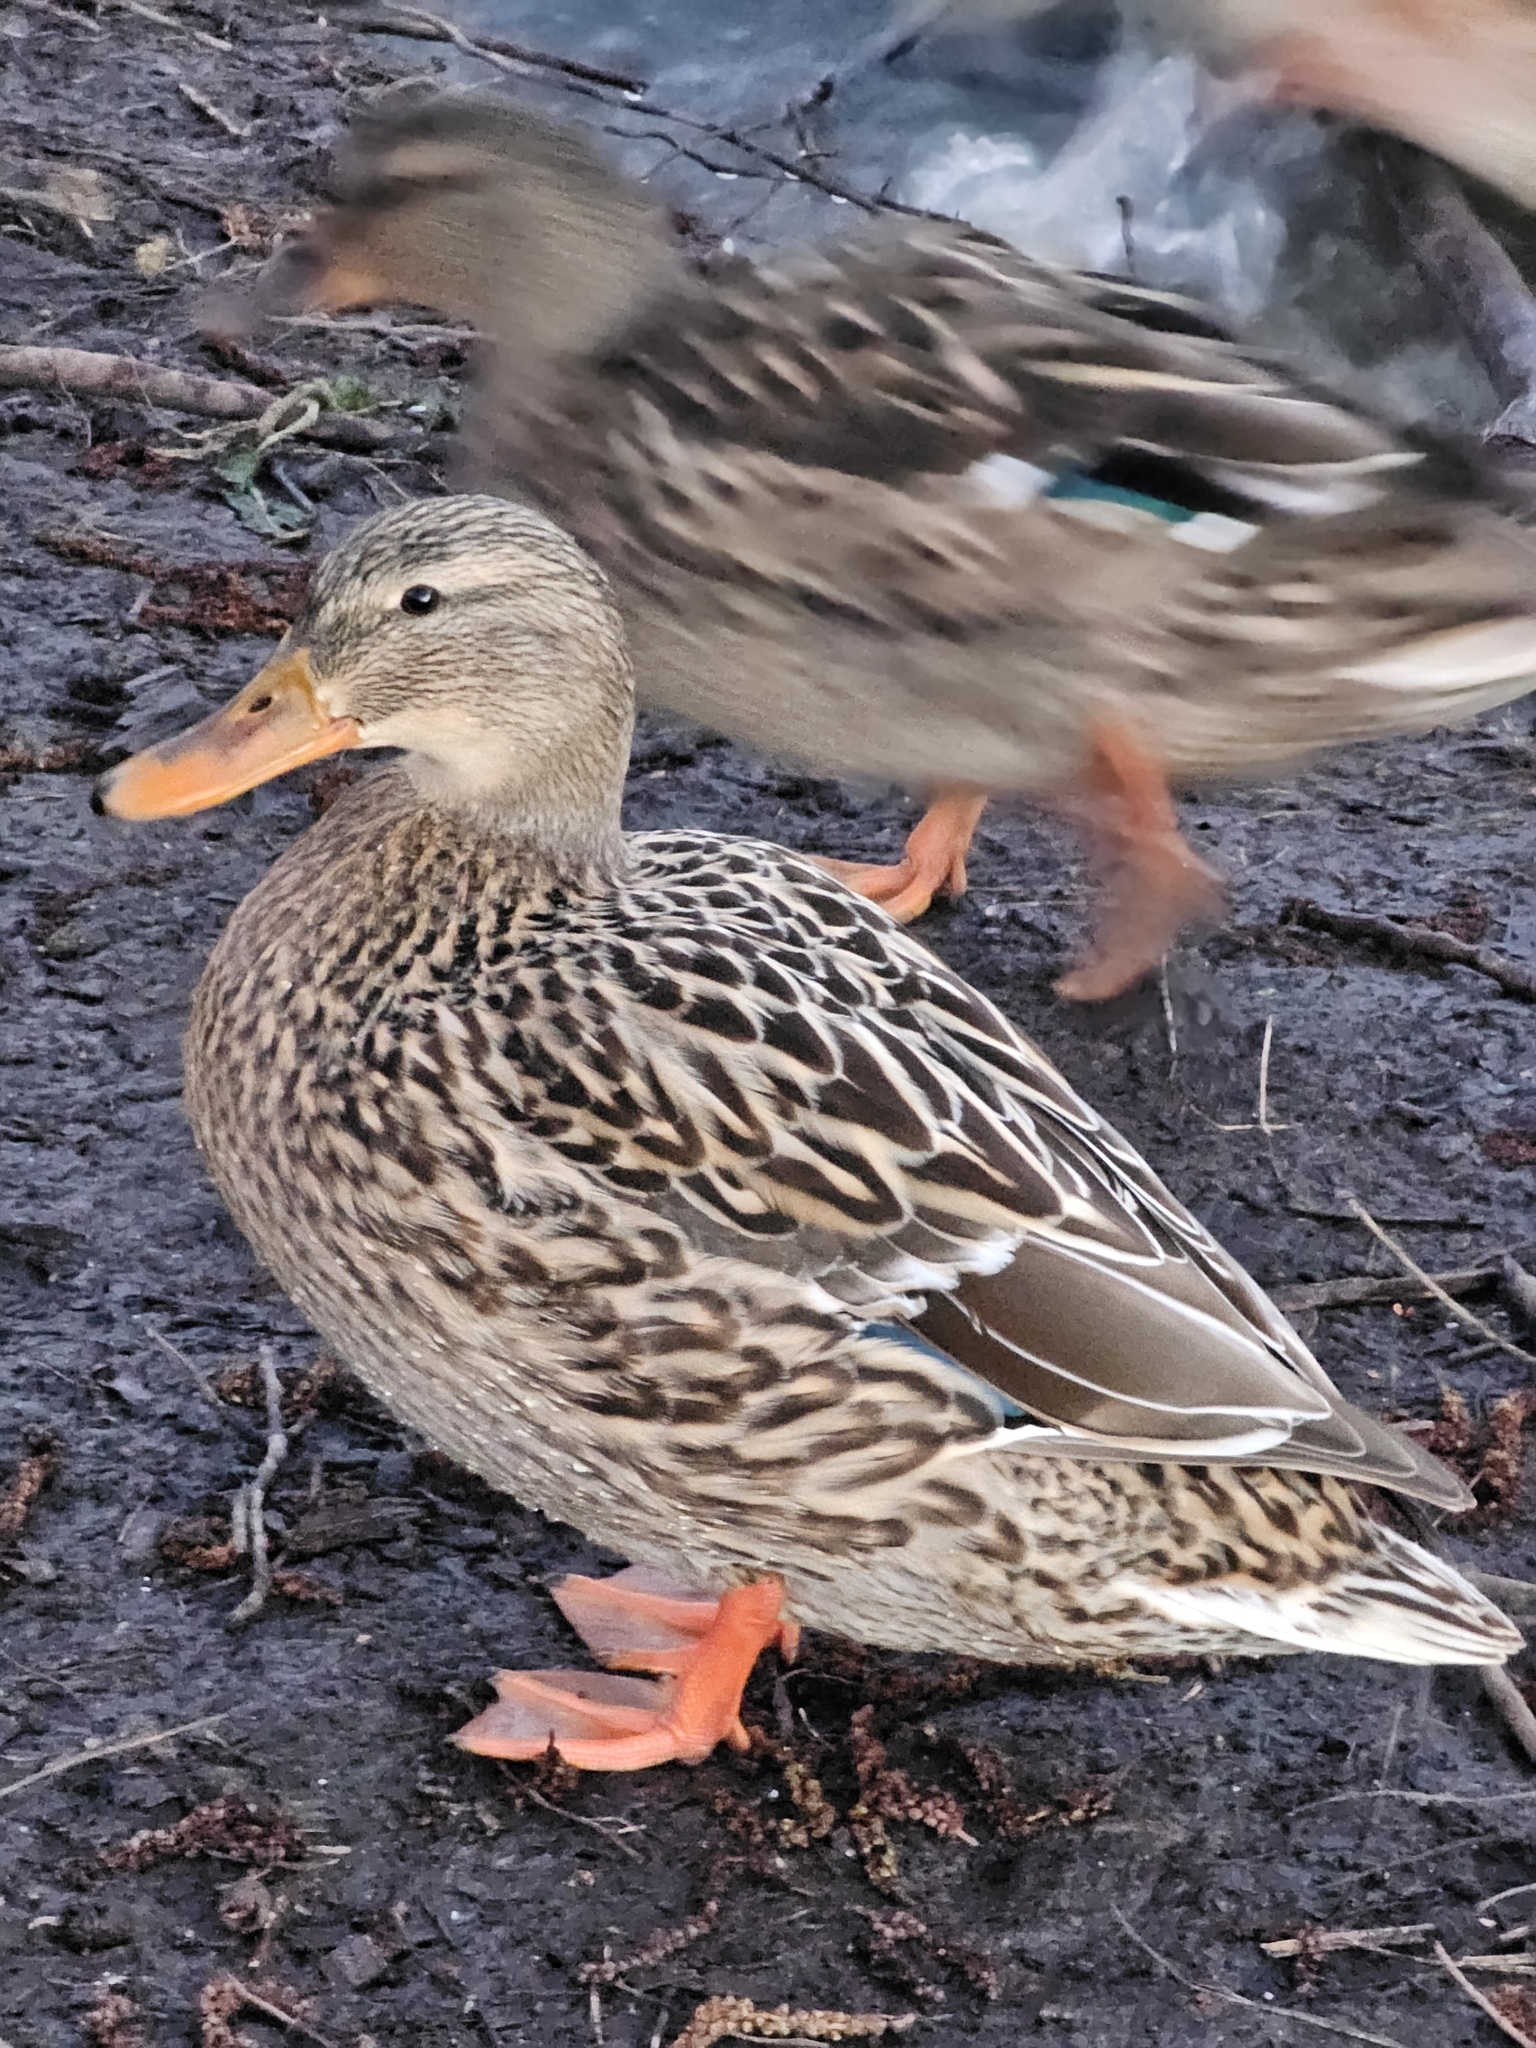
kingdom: Animalia
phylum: Chordata
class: Aves
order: Anseriformes
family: Anatidae
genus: Anas
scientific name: Anas platyrhynchos
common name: Mallard
